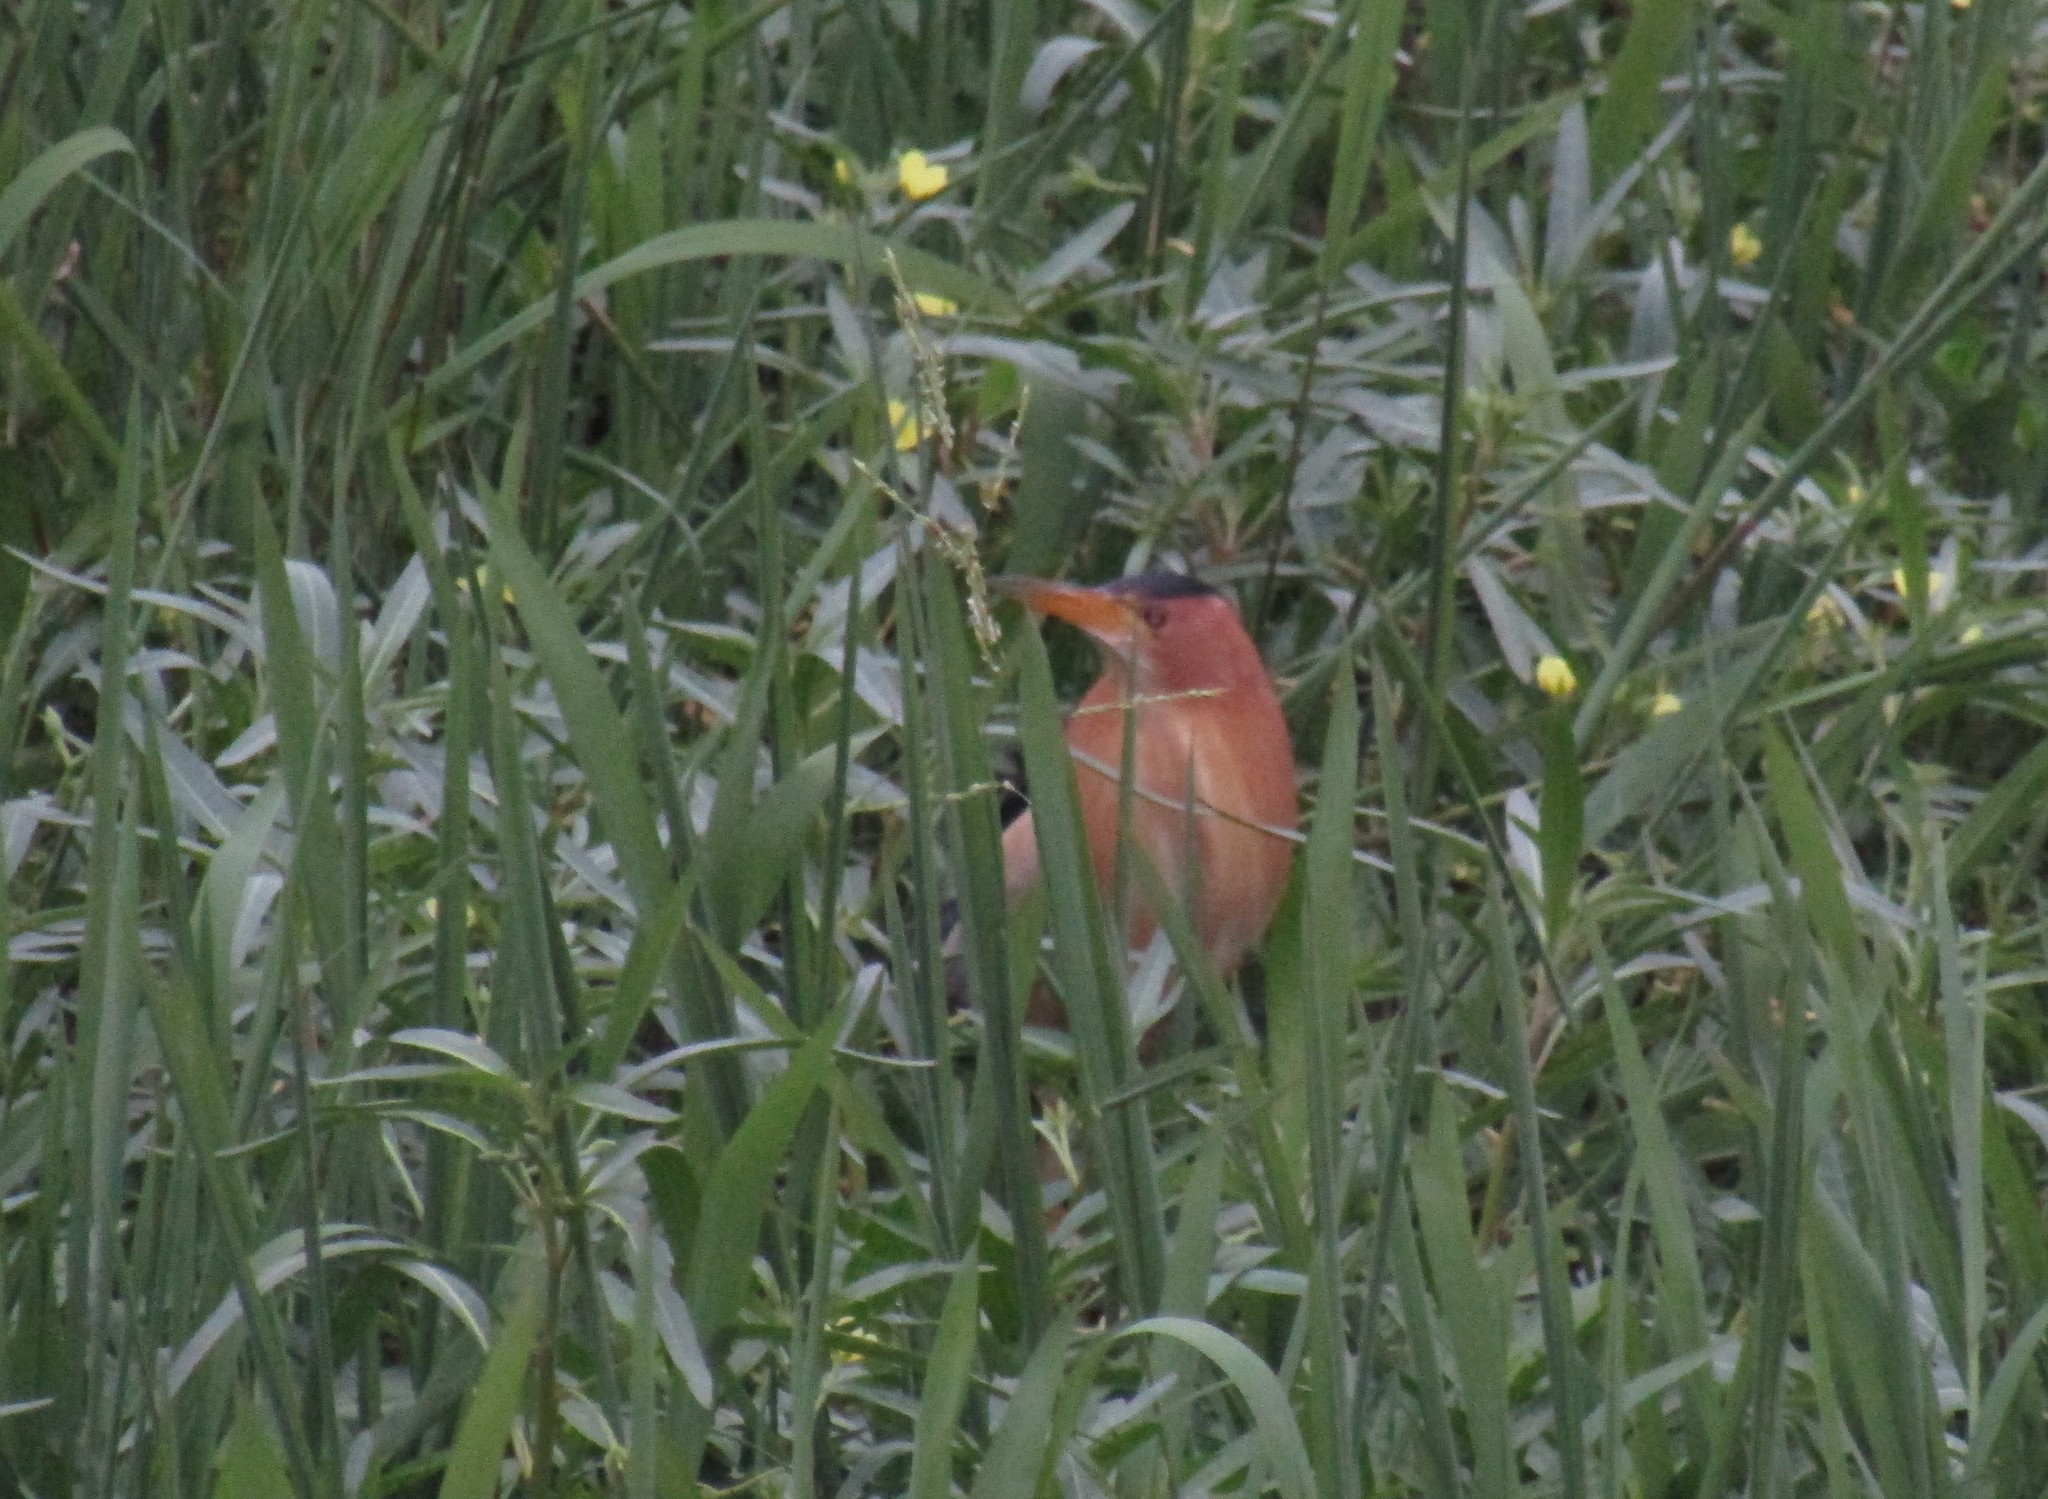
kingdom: Animalia
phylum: Chordata
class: Aves
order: Pelecaniformes
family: Ardeidae
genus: Ixobrychus
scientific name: Ixobrychus minutus
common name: Little bittern
